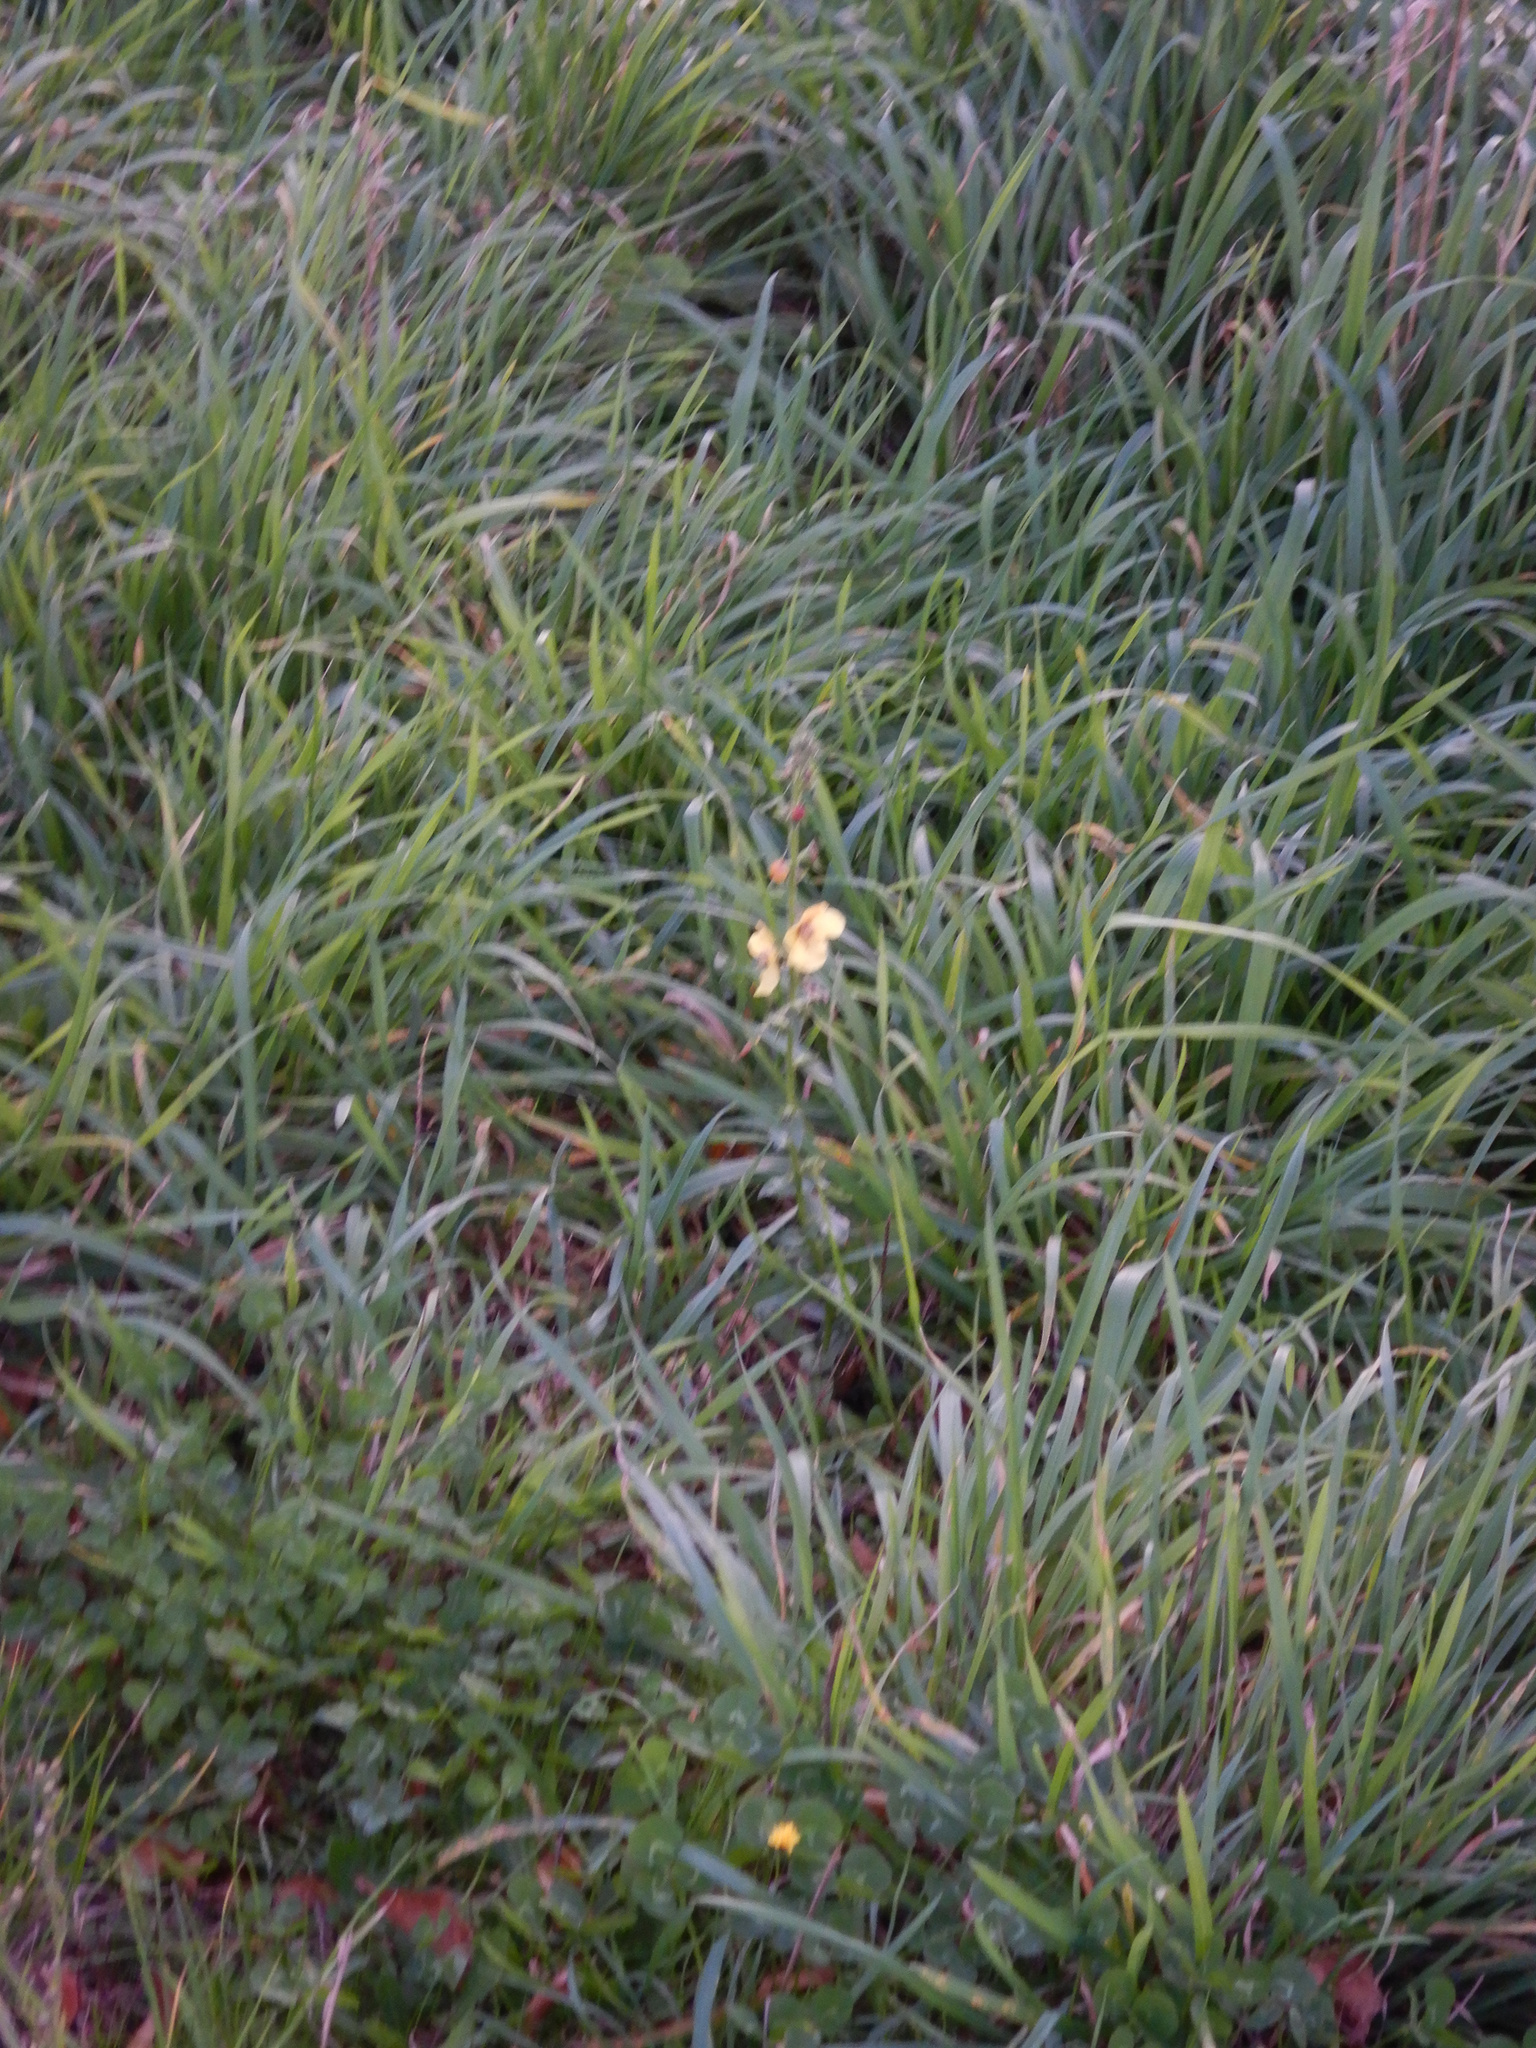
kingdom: Plantae
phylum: Tracheophyta
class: Magnoliopsida
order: Lamiales
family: Scrophulariaceae
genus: Verbascum
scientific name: Verbascum virgatum
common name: Twiggy mullein
